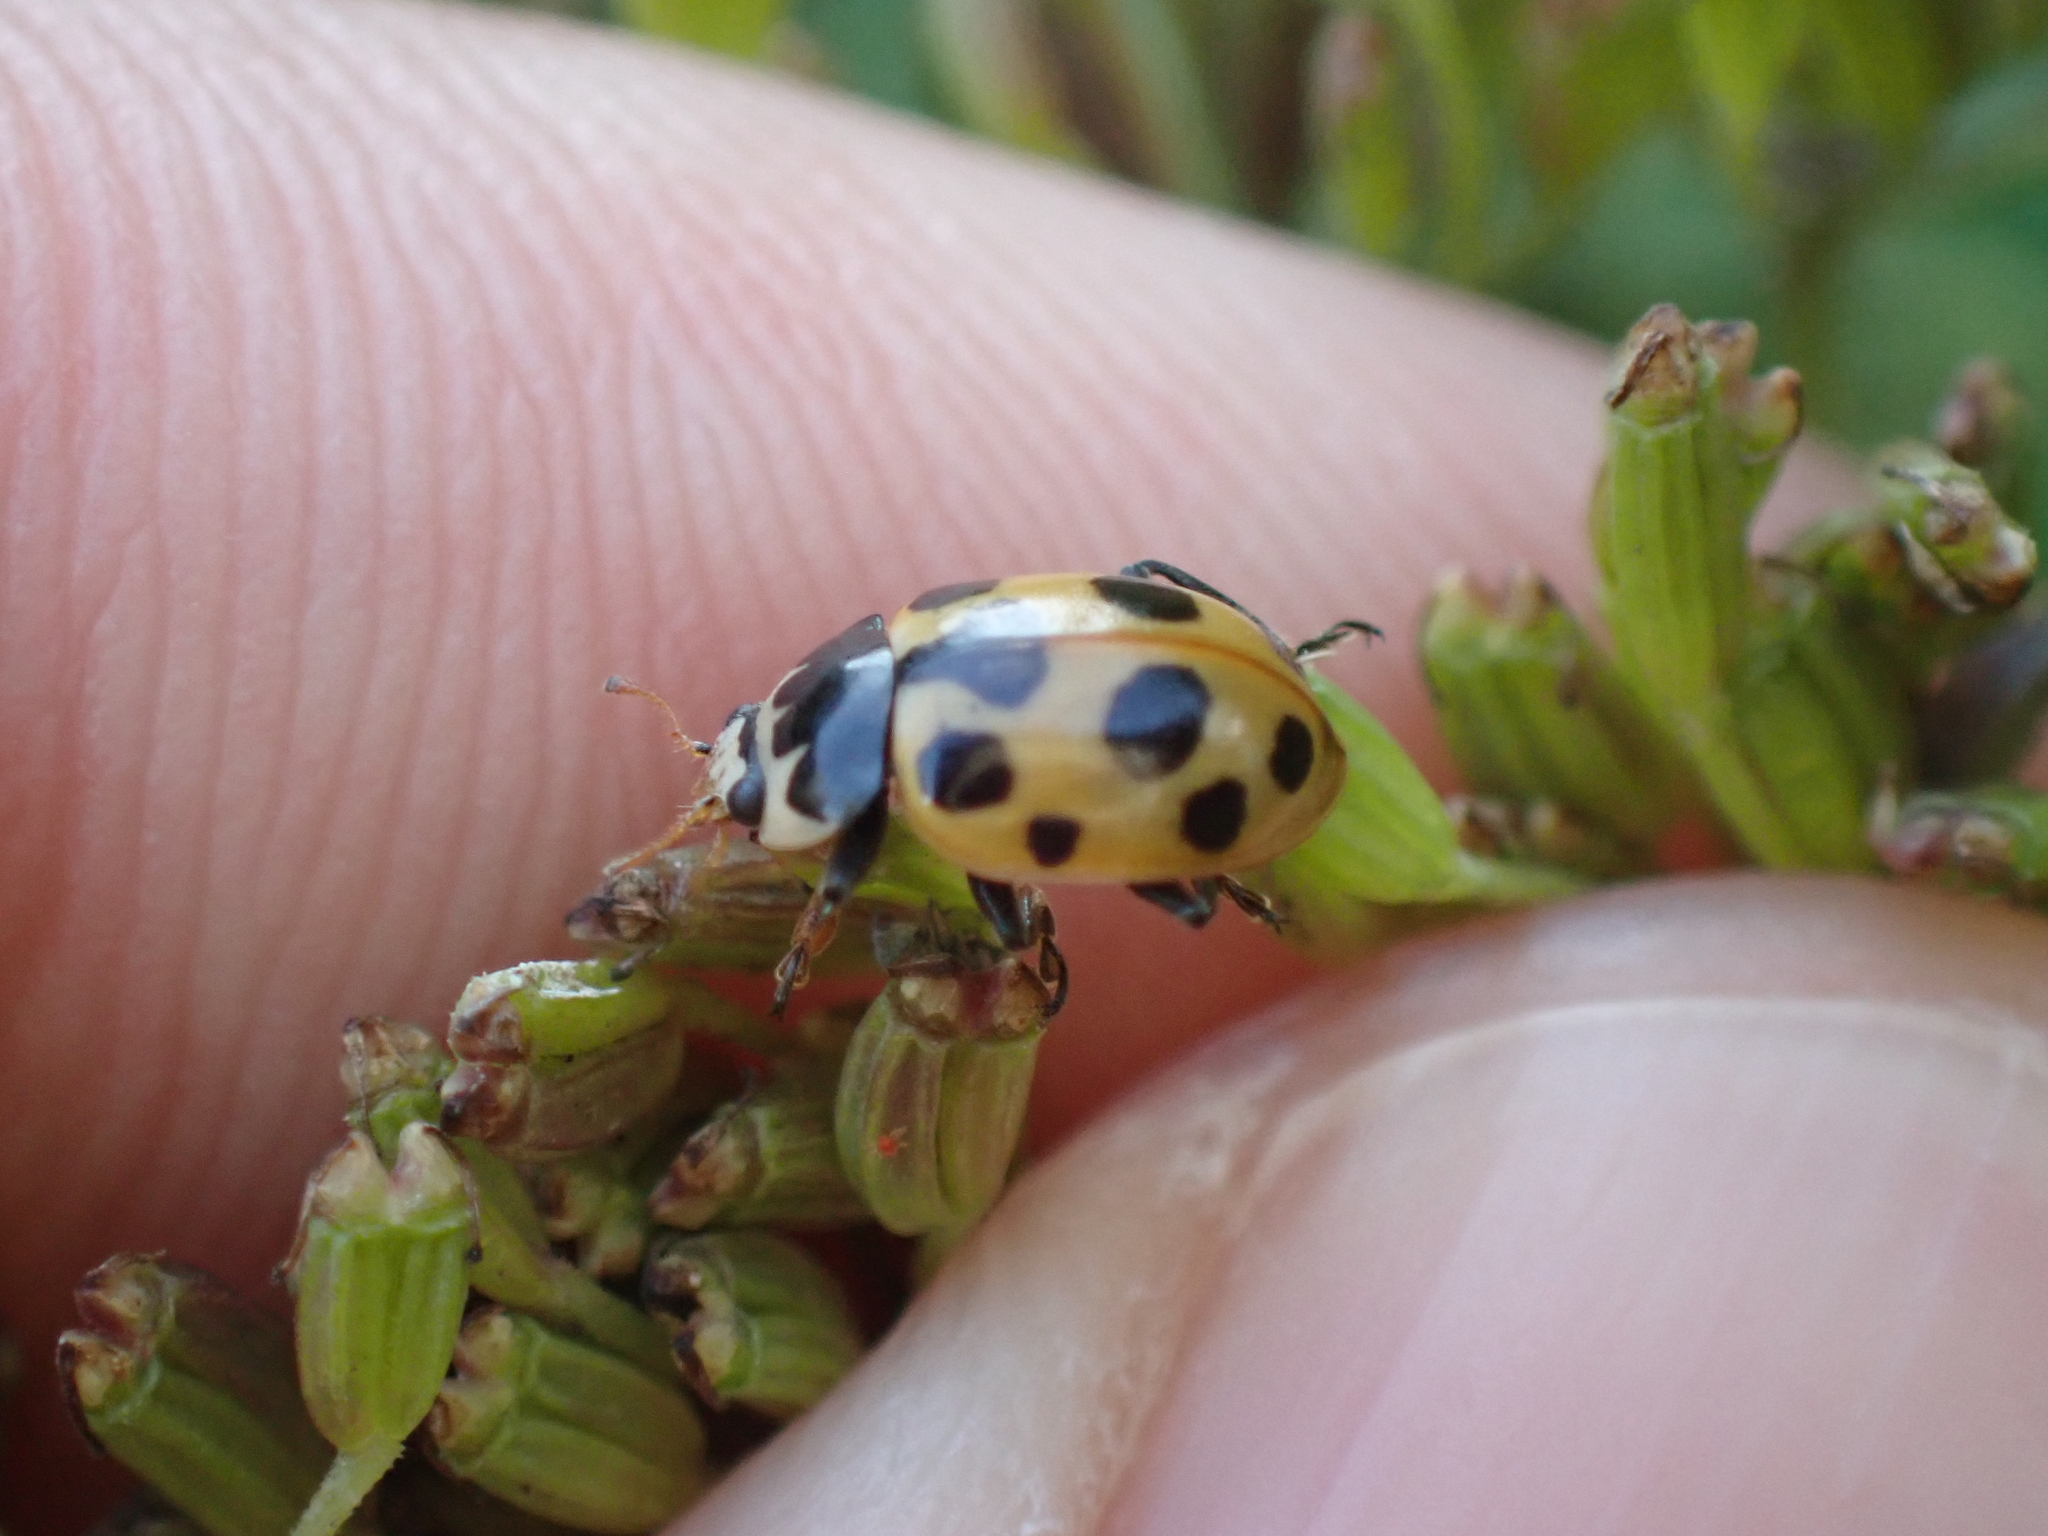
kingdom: Animalia
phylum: Arthropoda
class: Insecta
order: Coleoptera
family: Coccinellidae
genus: Ceratomegilla
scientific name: Ceratomegilla notata
